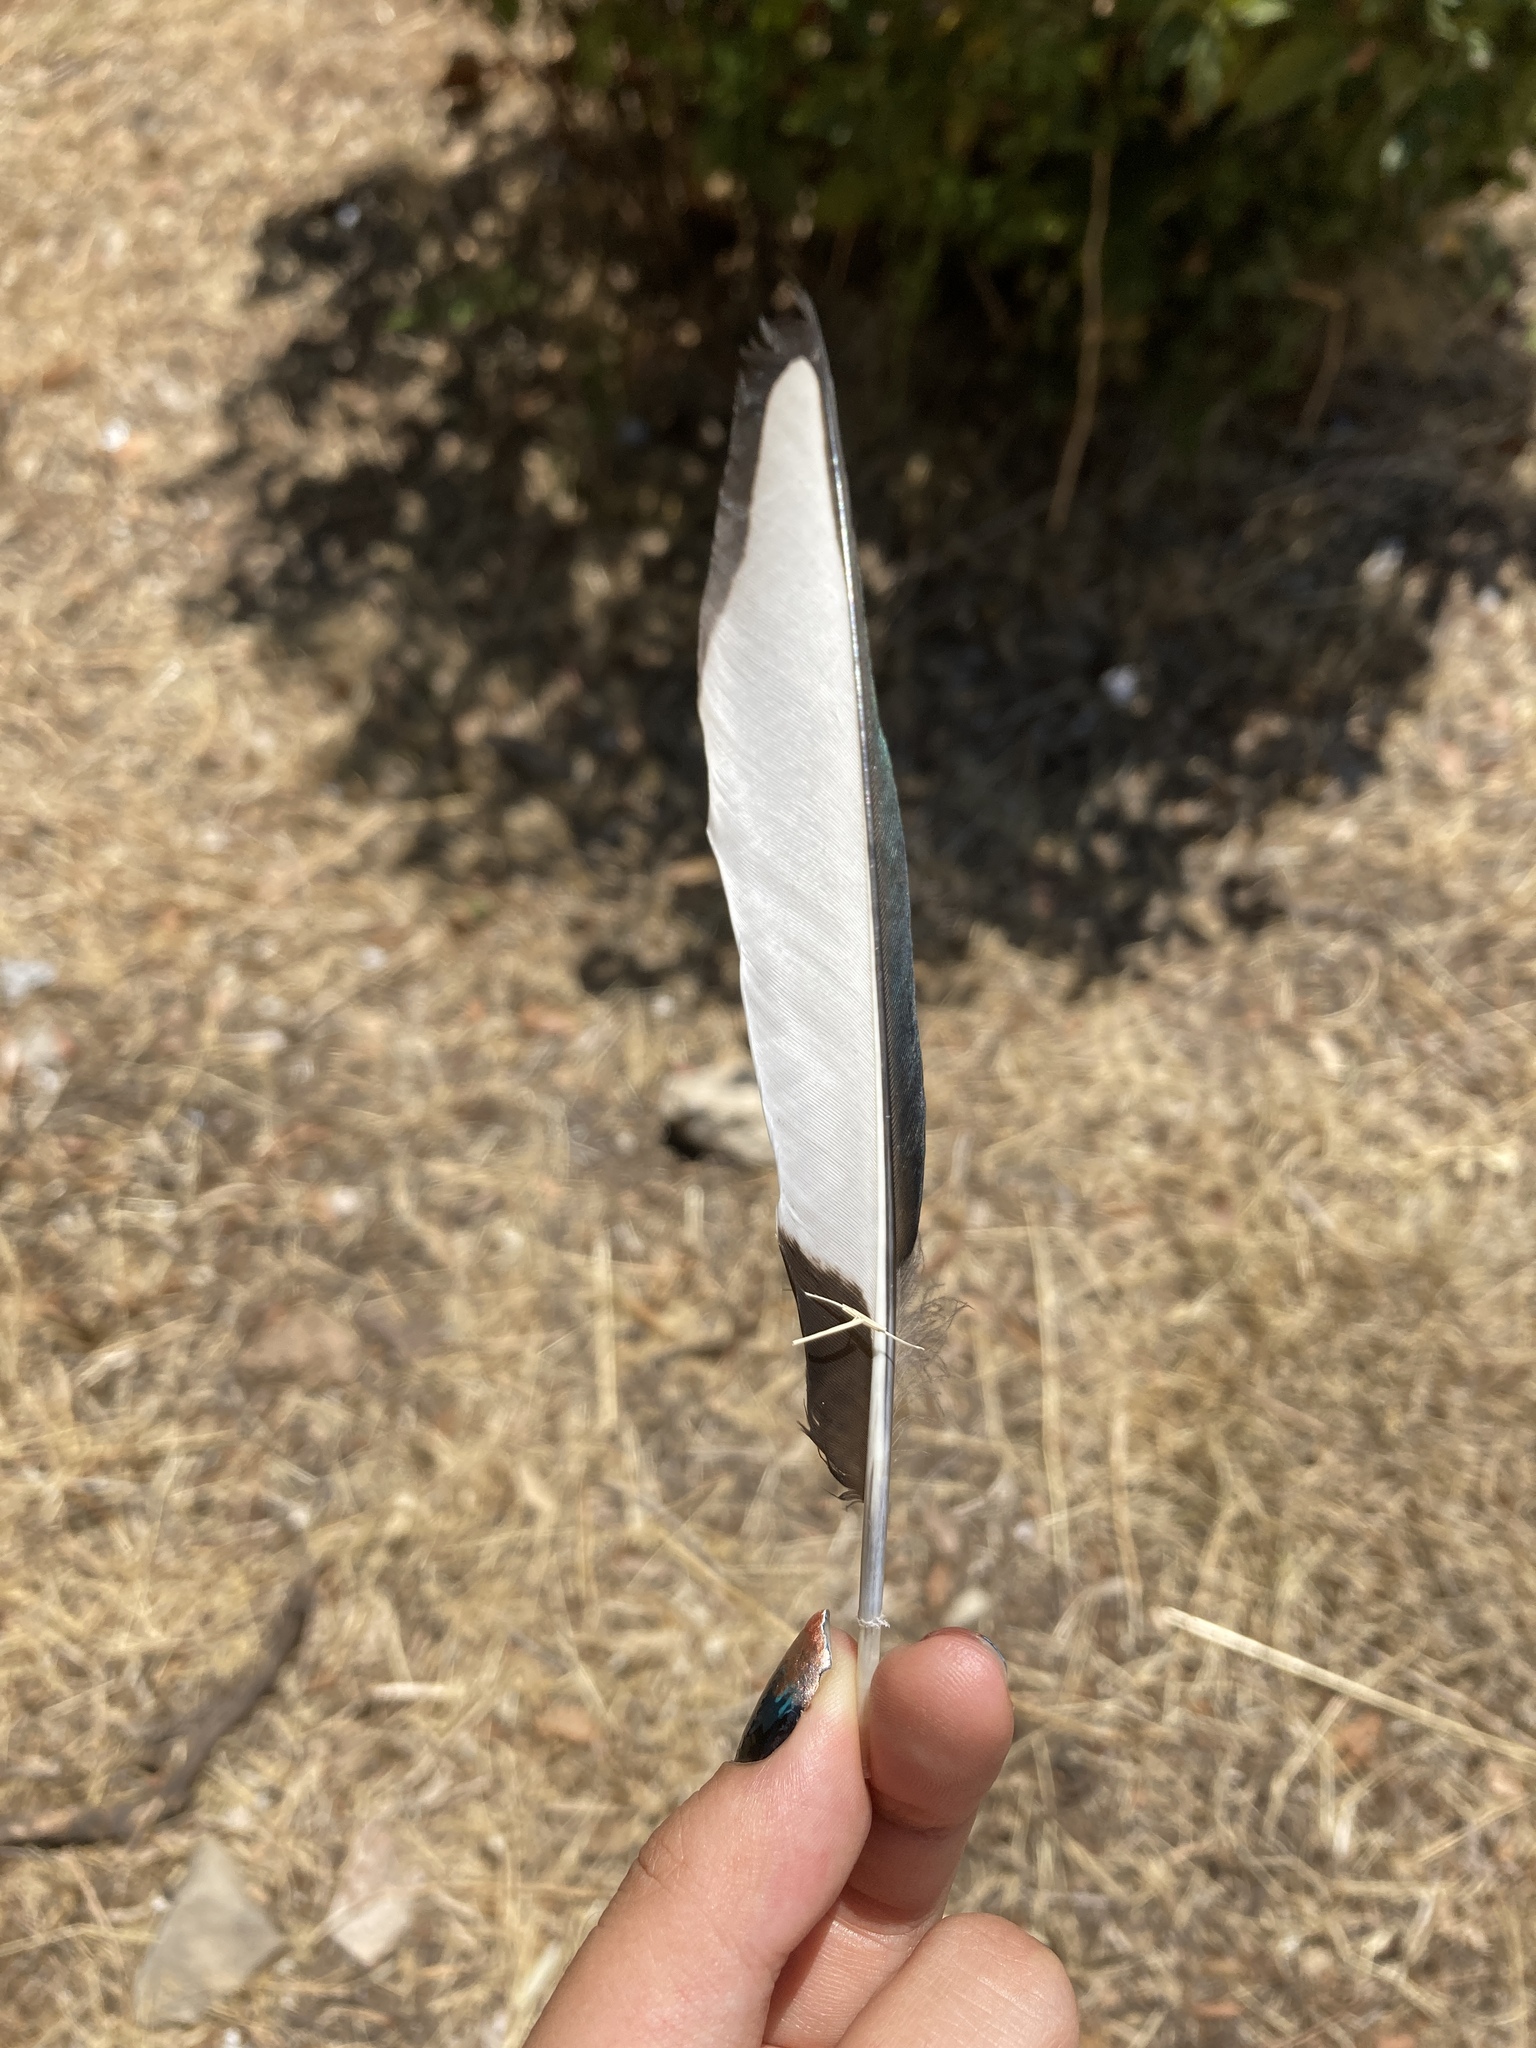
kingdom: Animalia
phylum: Chordata
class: Aves
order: Passeriformes
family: Corvidae
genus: Pica
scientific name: Pica pica
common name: Eurasian magpie
